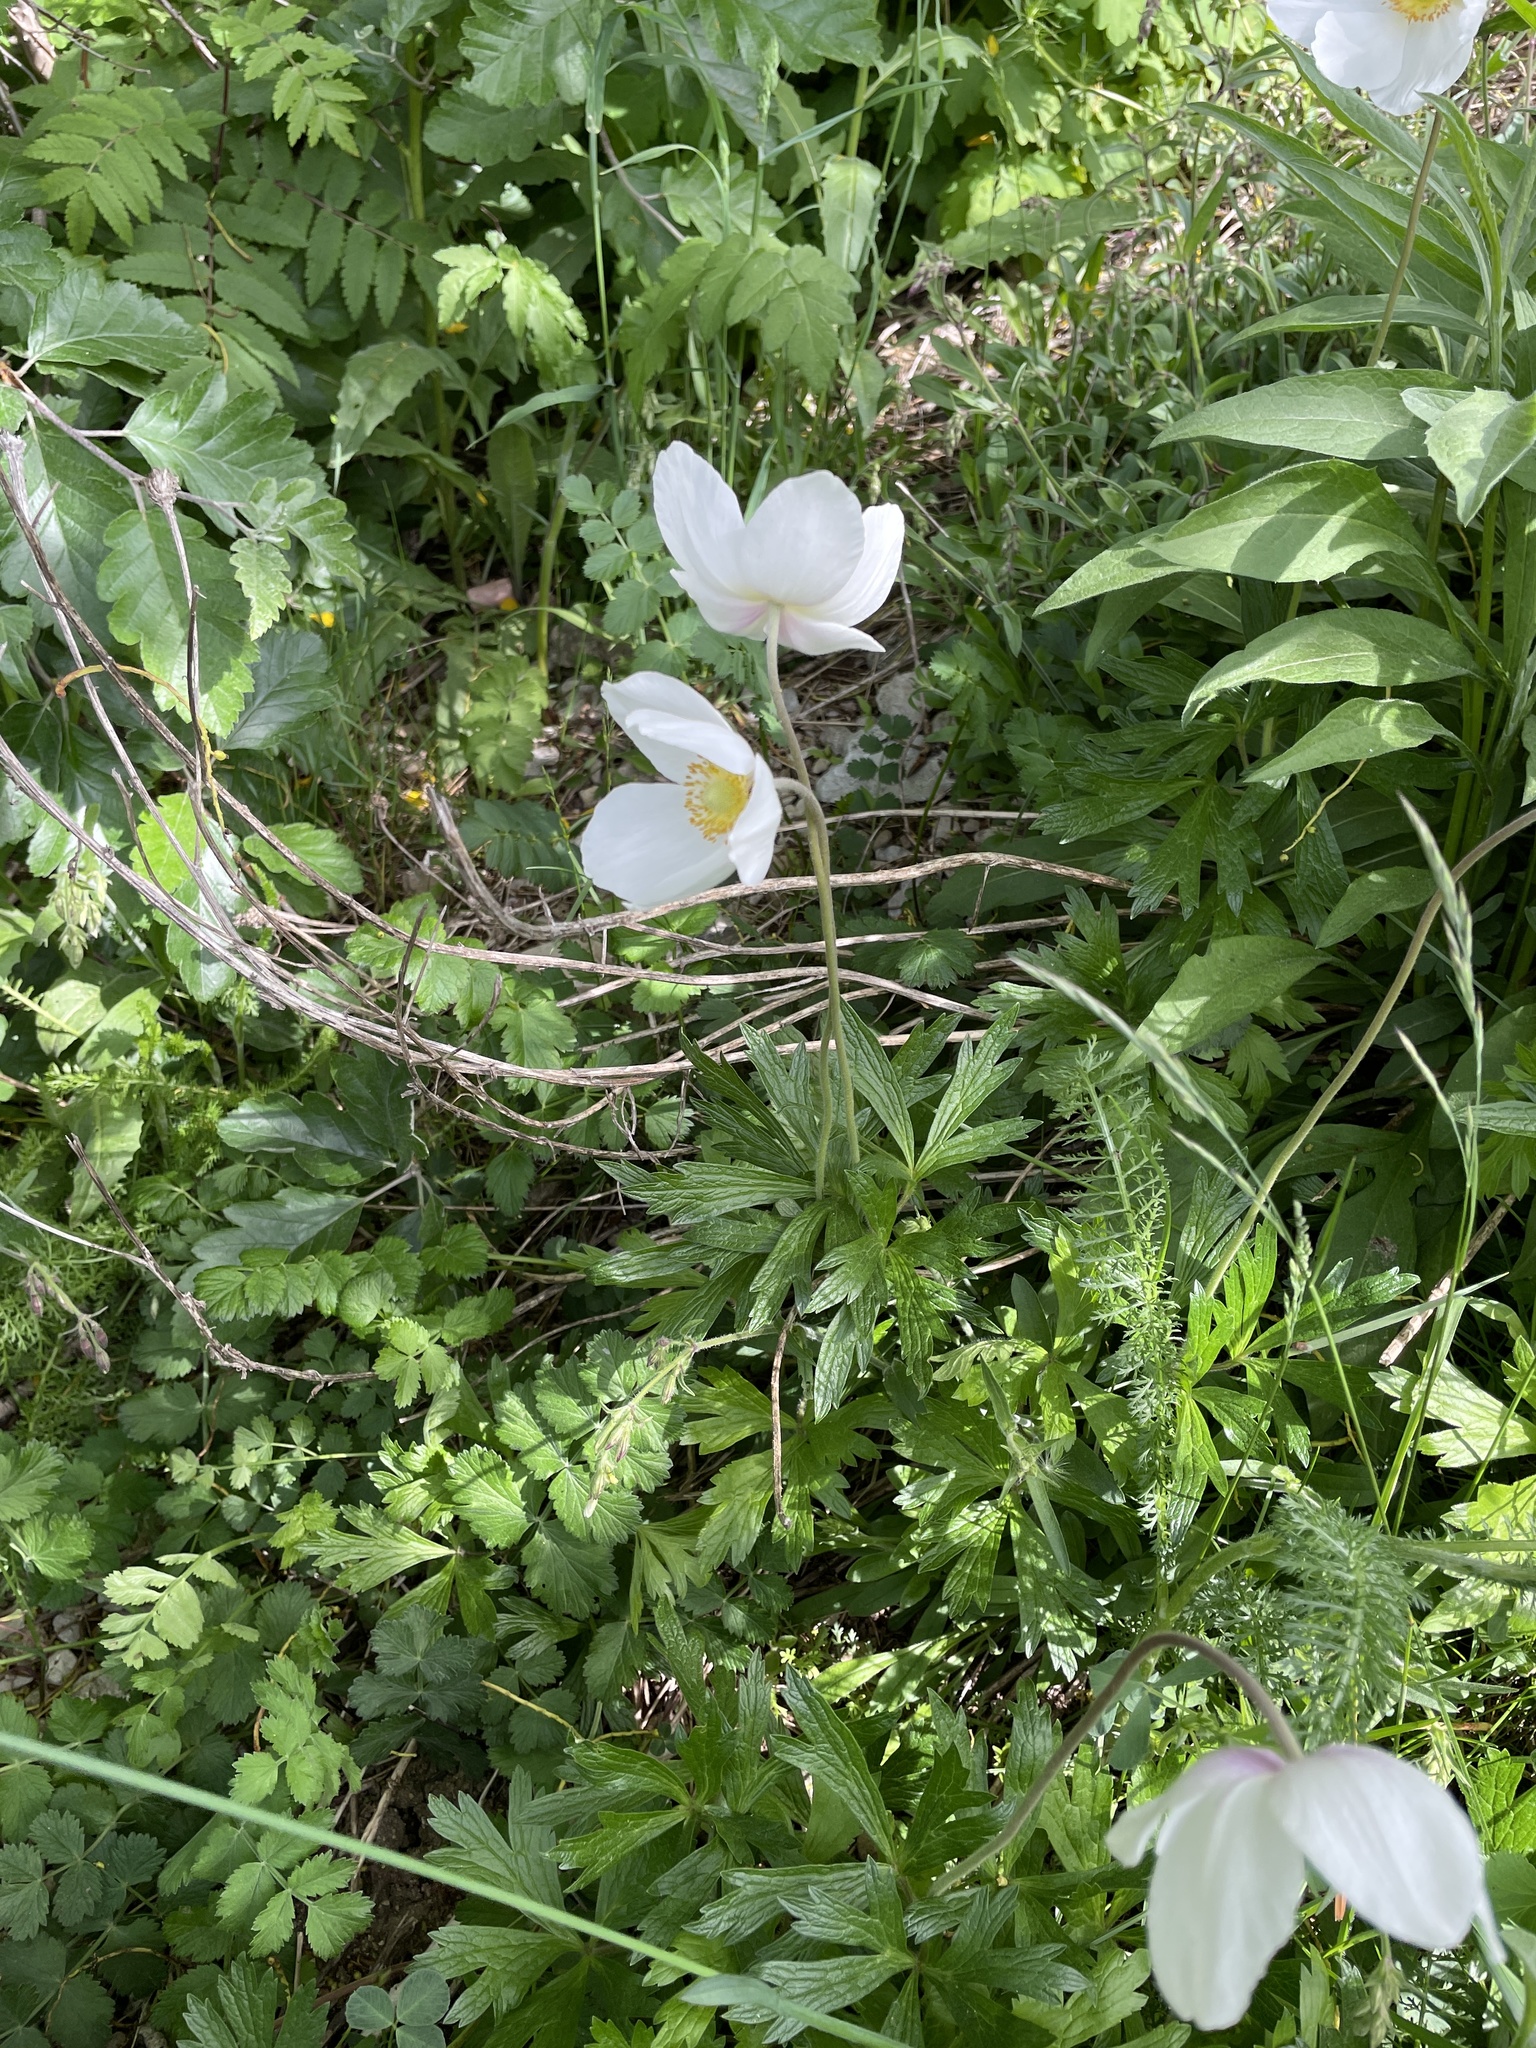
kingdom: Plantae
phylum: Tracheophyta
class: Magnoliopsida
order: Ranunculales
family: Ranunculaceae
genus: Anemone
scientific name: Anemone sylvestris
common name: Snowdrop anemone
